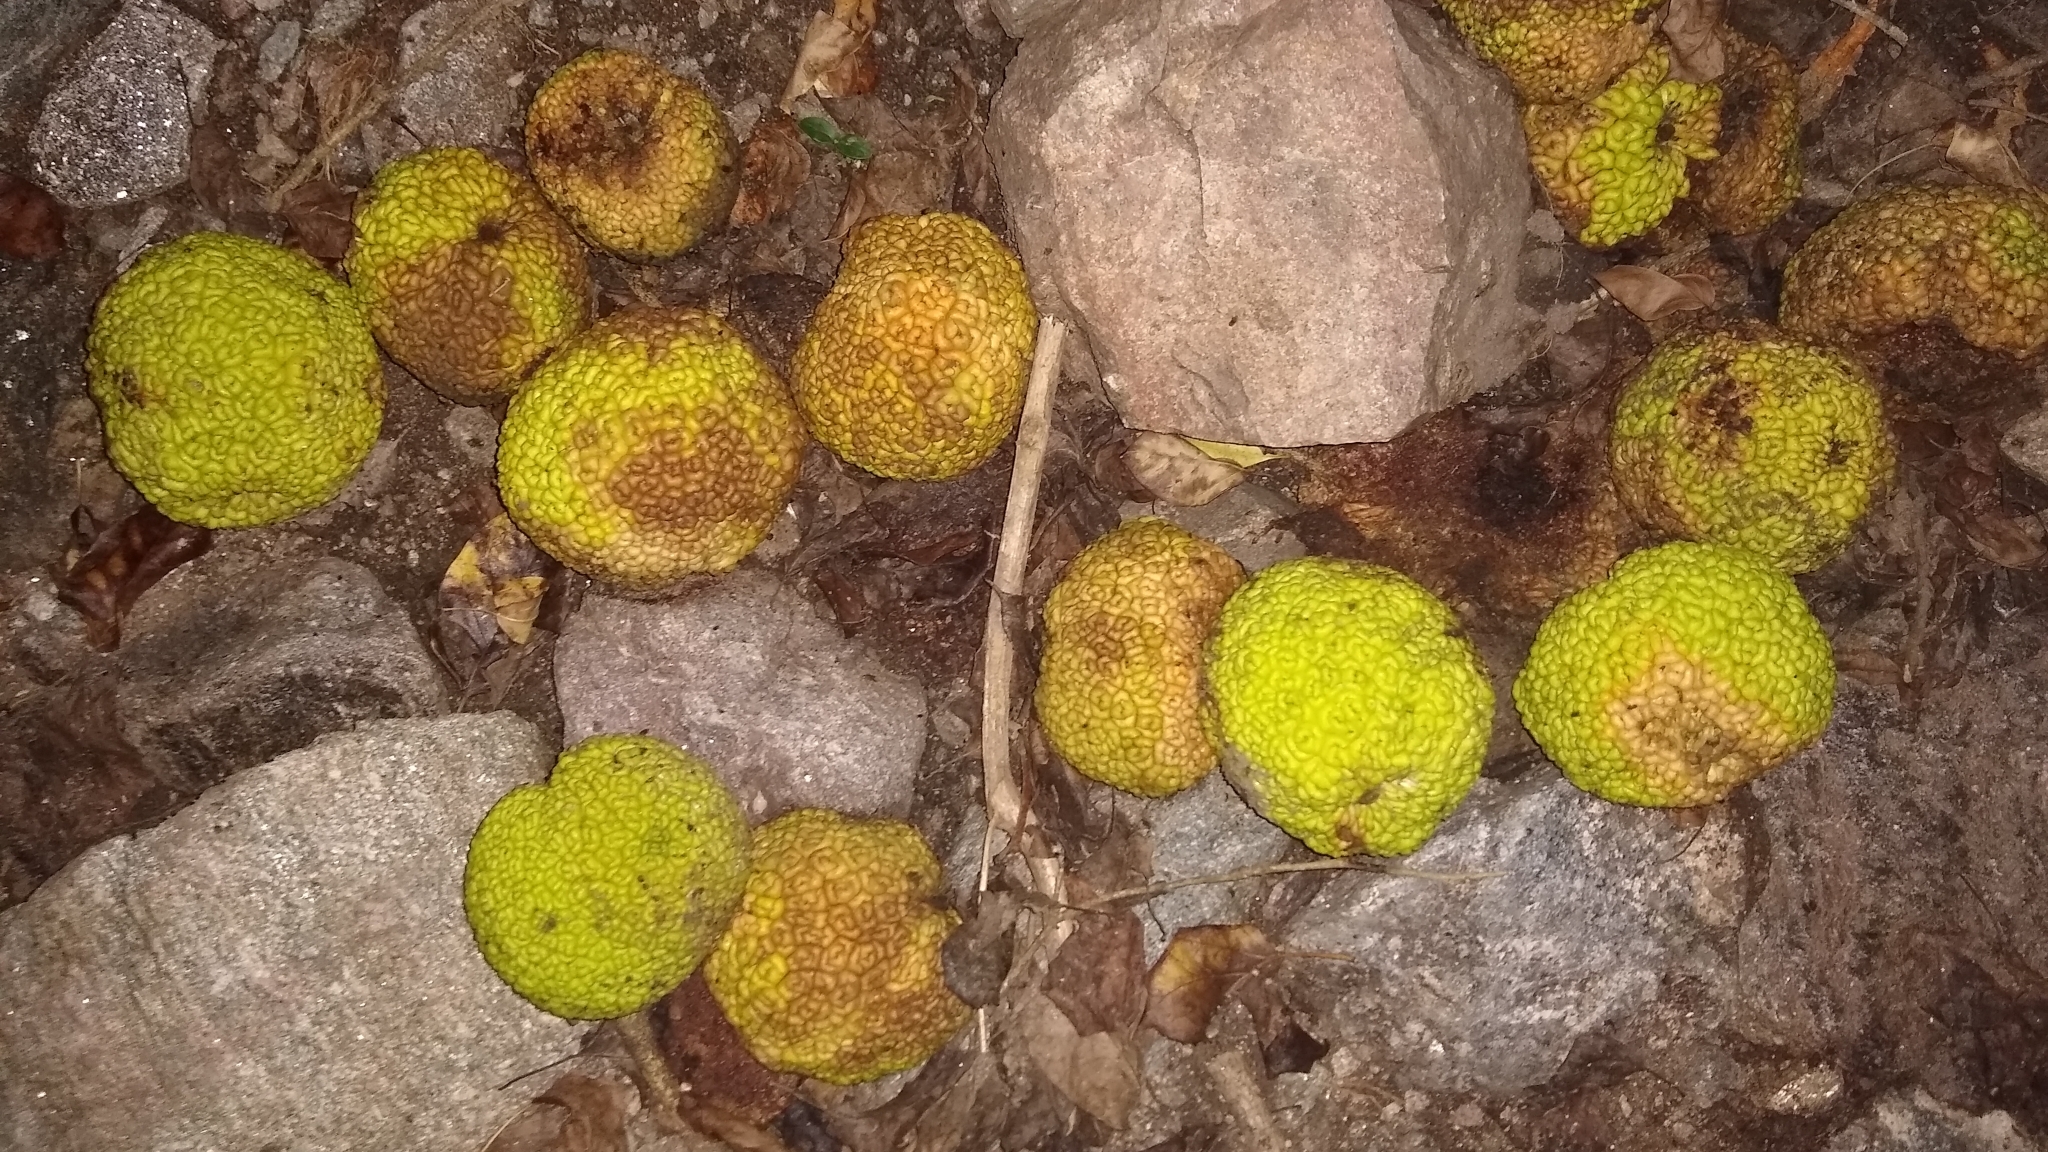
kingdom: Plantae
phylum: Tracheophyta
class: Magnoliopsida
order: Rosales
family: Moraceae
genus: Maclura
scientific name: Maclura pomifera
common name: Osage-orange
